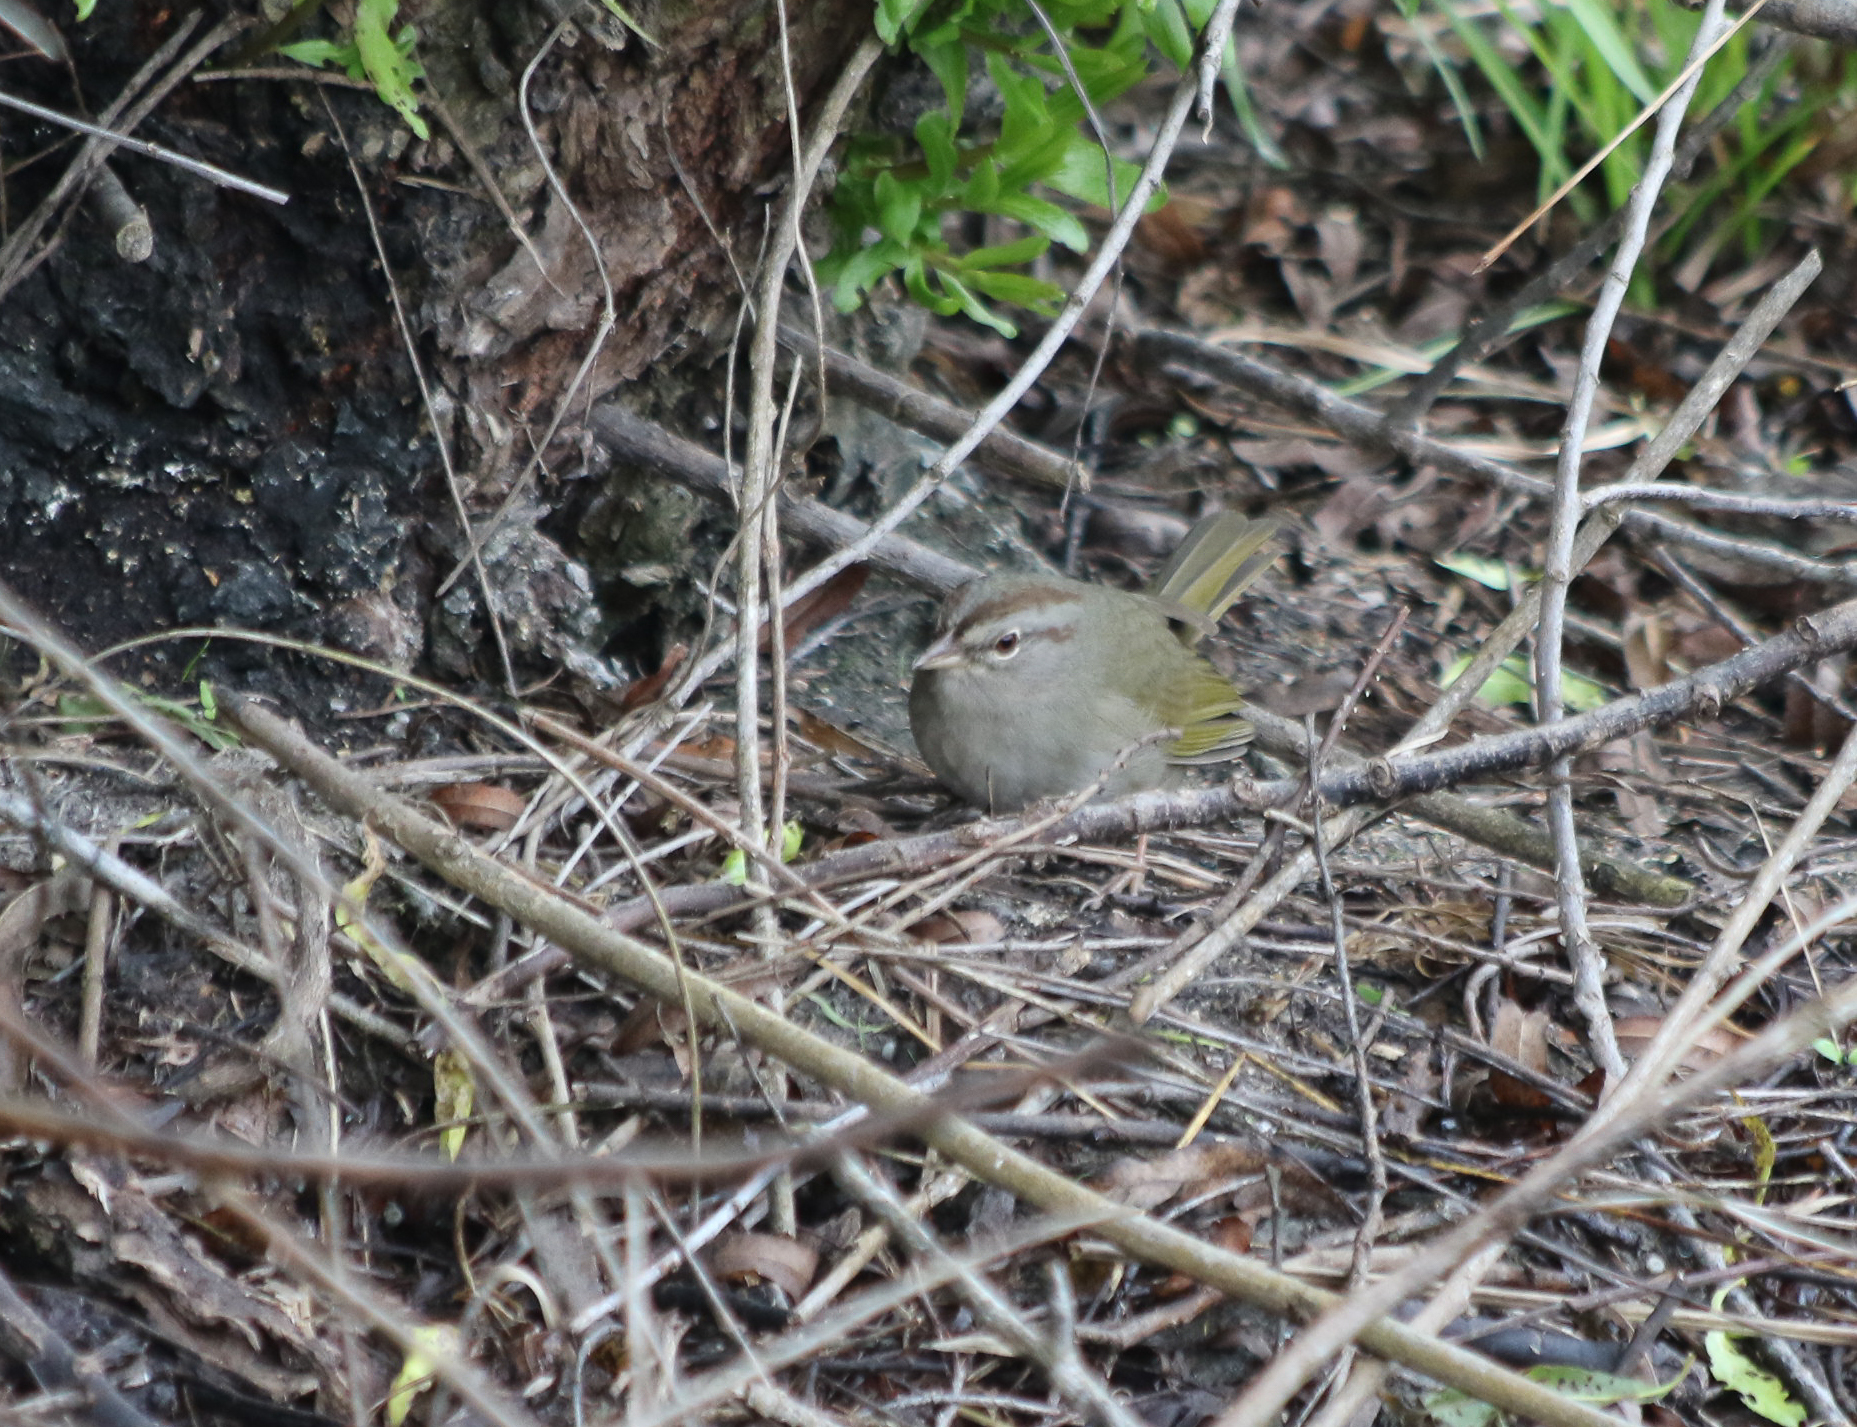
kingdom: Animalia
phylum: Chordata
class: Aves
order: Passeriformes
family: Passerellidae
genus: Arremonops
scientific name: Arremonops rufivirgatus
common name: Olive sparrow
